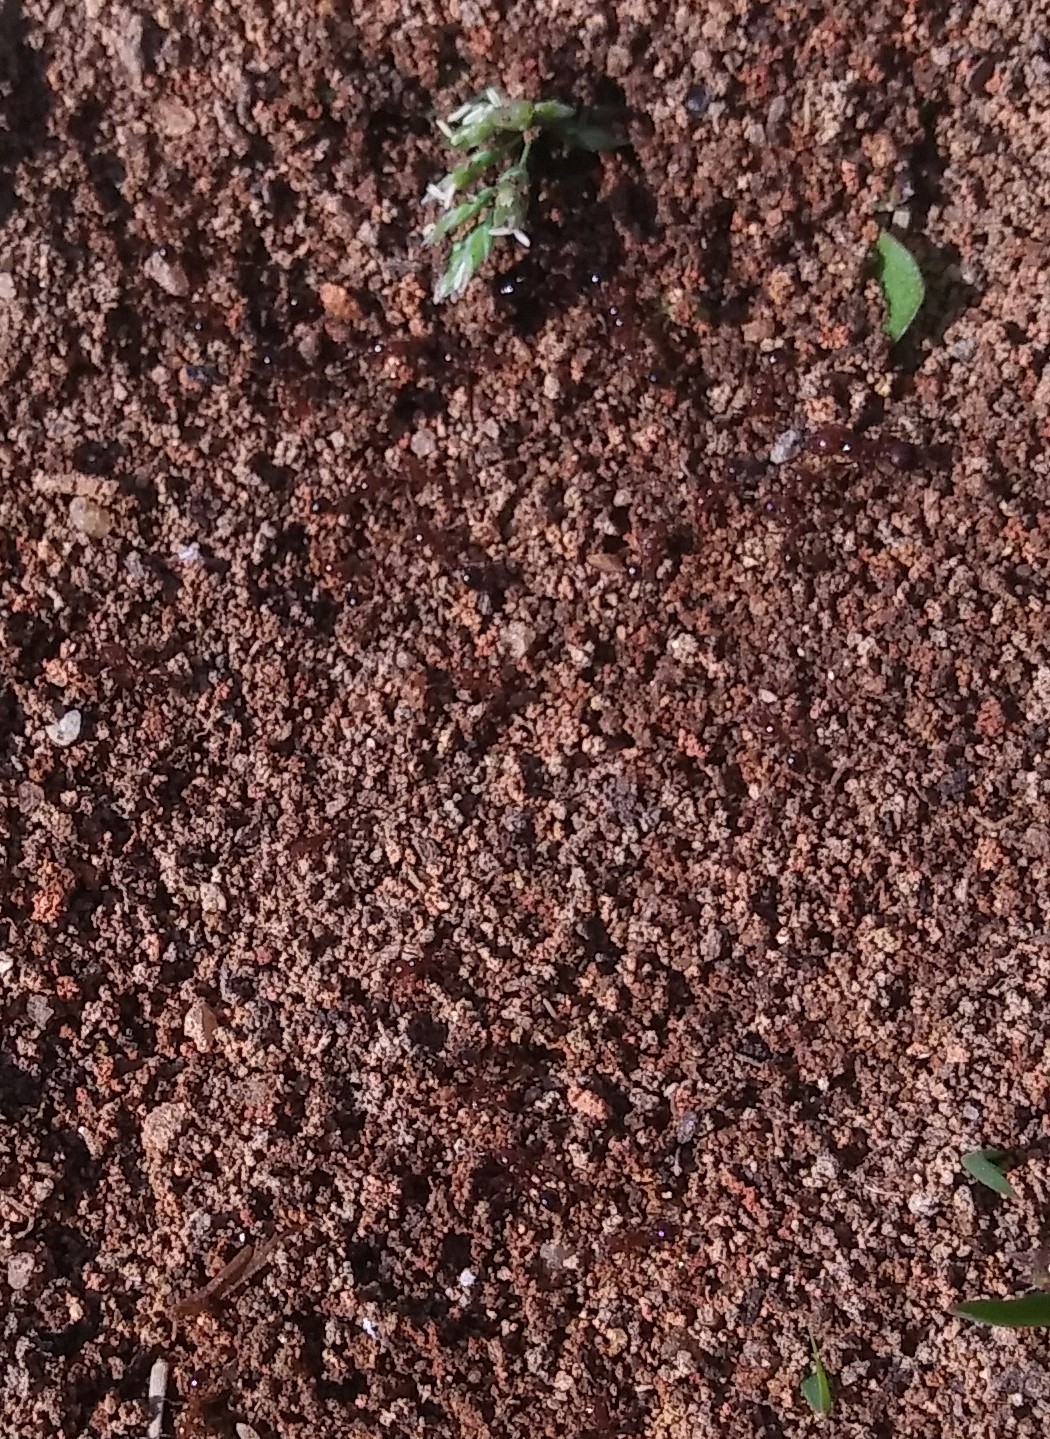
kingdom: Animalia
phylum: Arthropoda
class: Insecta
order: Hymenoptera
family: Formicidae
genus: Solenopsis
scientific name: Solenopsis invicta
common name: Red imported fire ant
